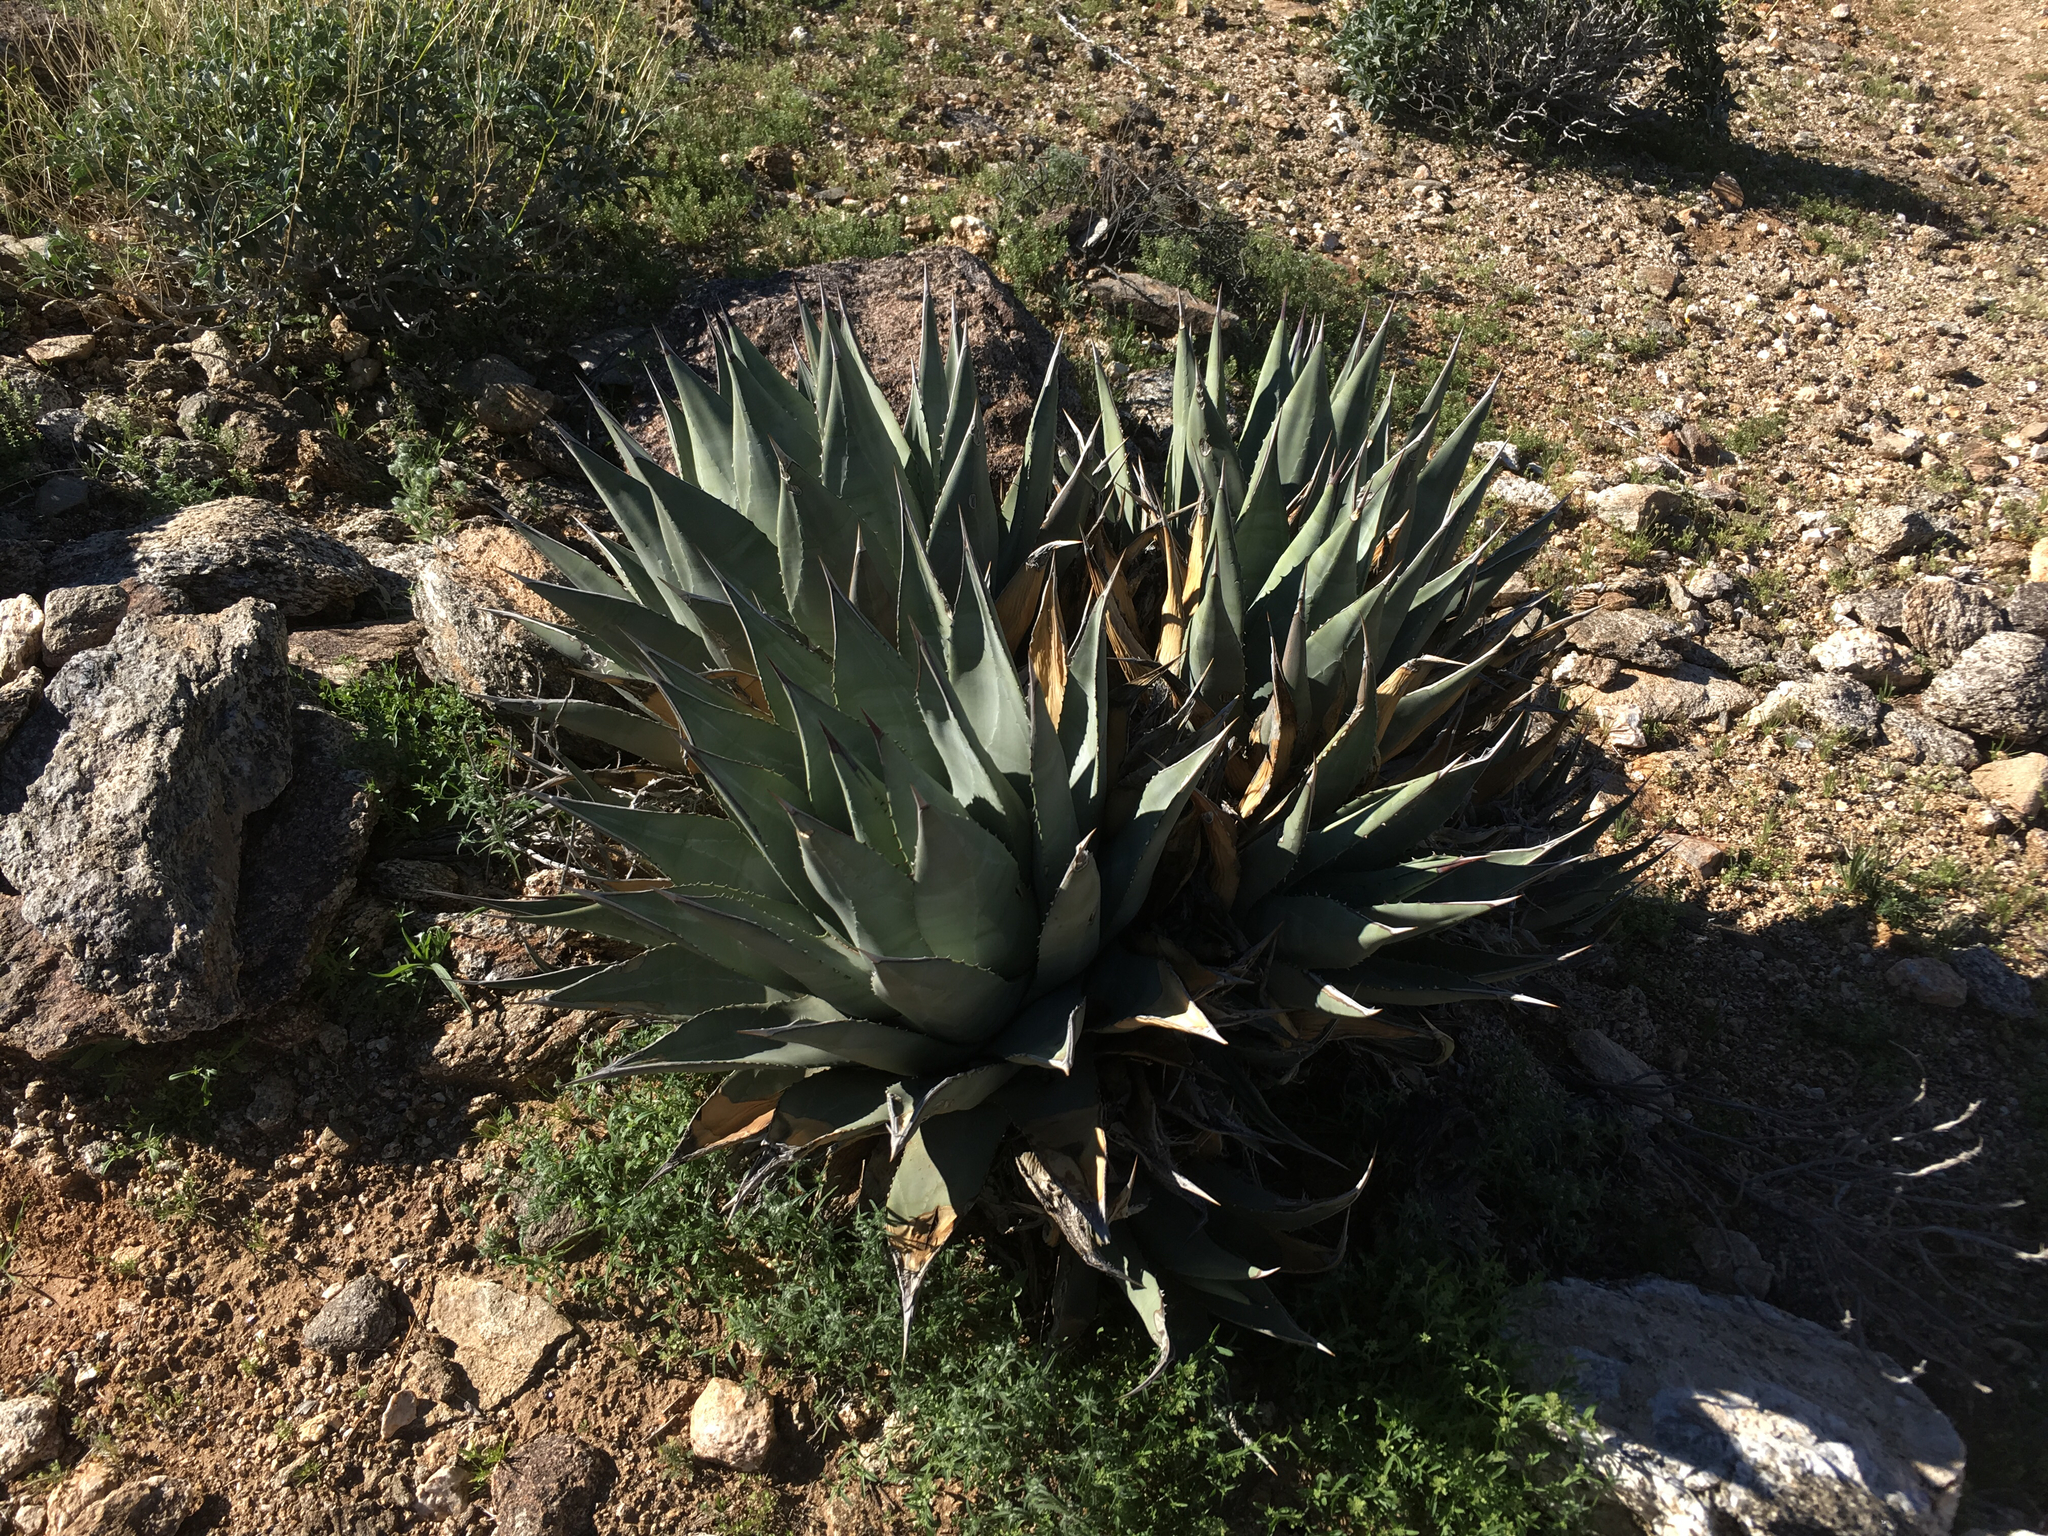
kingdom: Plantae
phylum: Tracheophyta
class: Liliopsida
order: Asparagales
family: Asparagaceae
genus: Agave
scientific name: Agave deserti
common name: Desert agave
